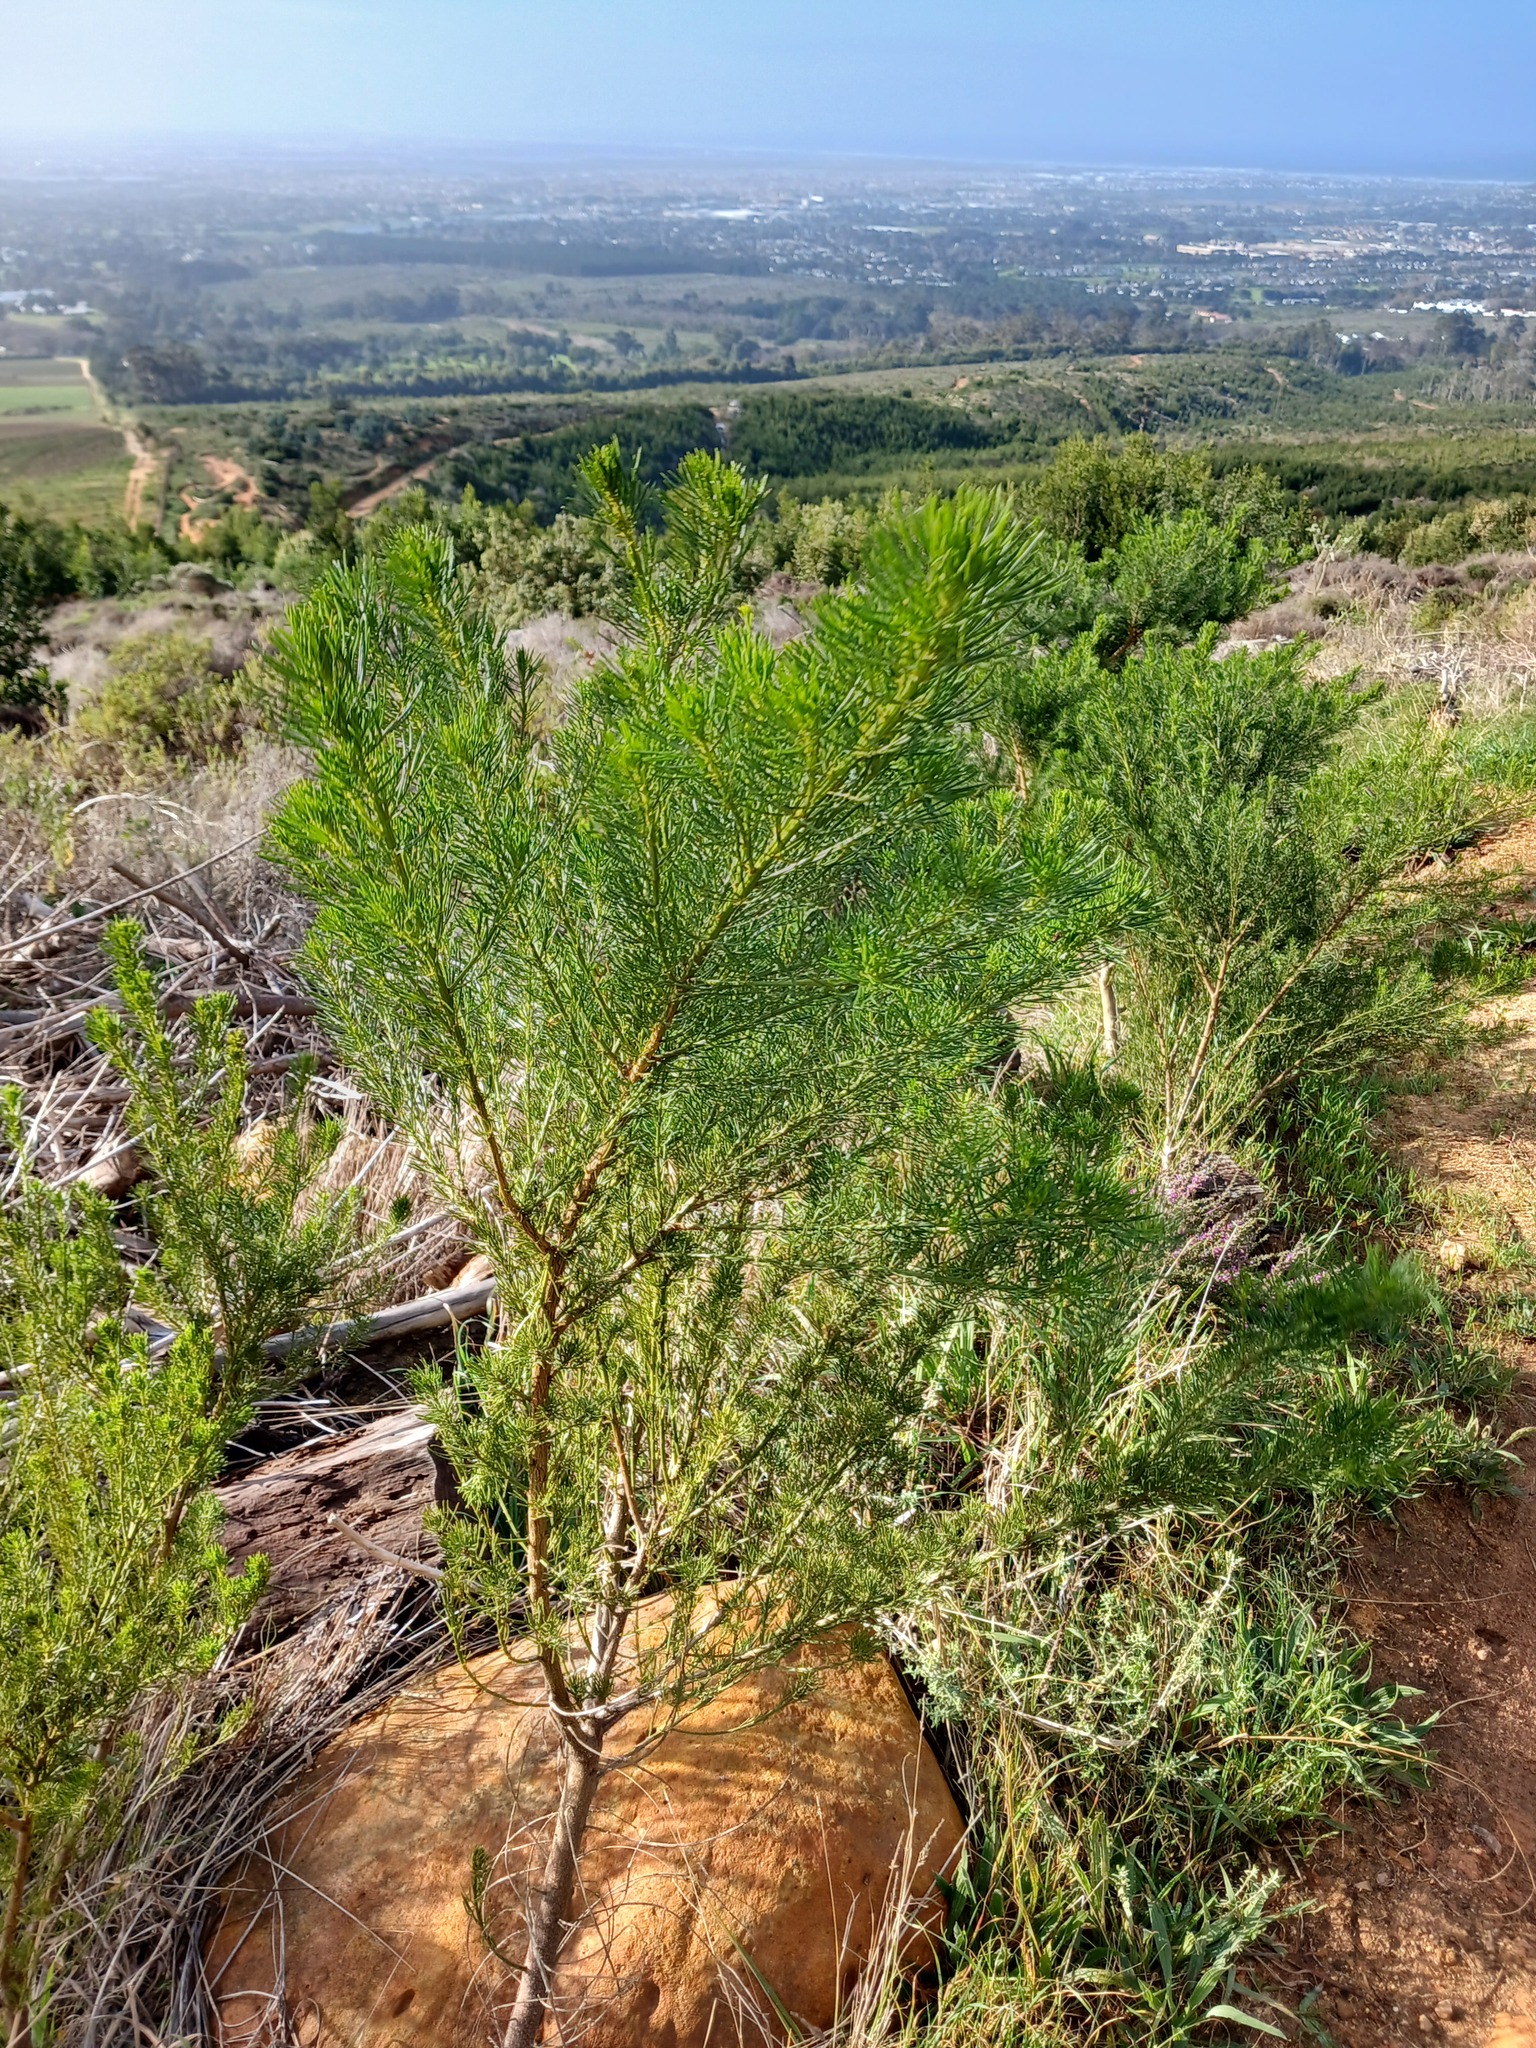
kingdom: Plantae
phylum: Tracheophyta
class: Magnoliopsida
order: Fabales
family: Fabaceae
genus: Psoralea
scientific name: Psoralea pinnata
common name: African scurfpea
